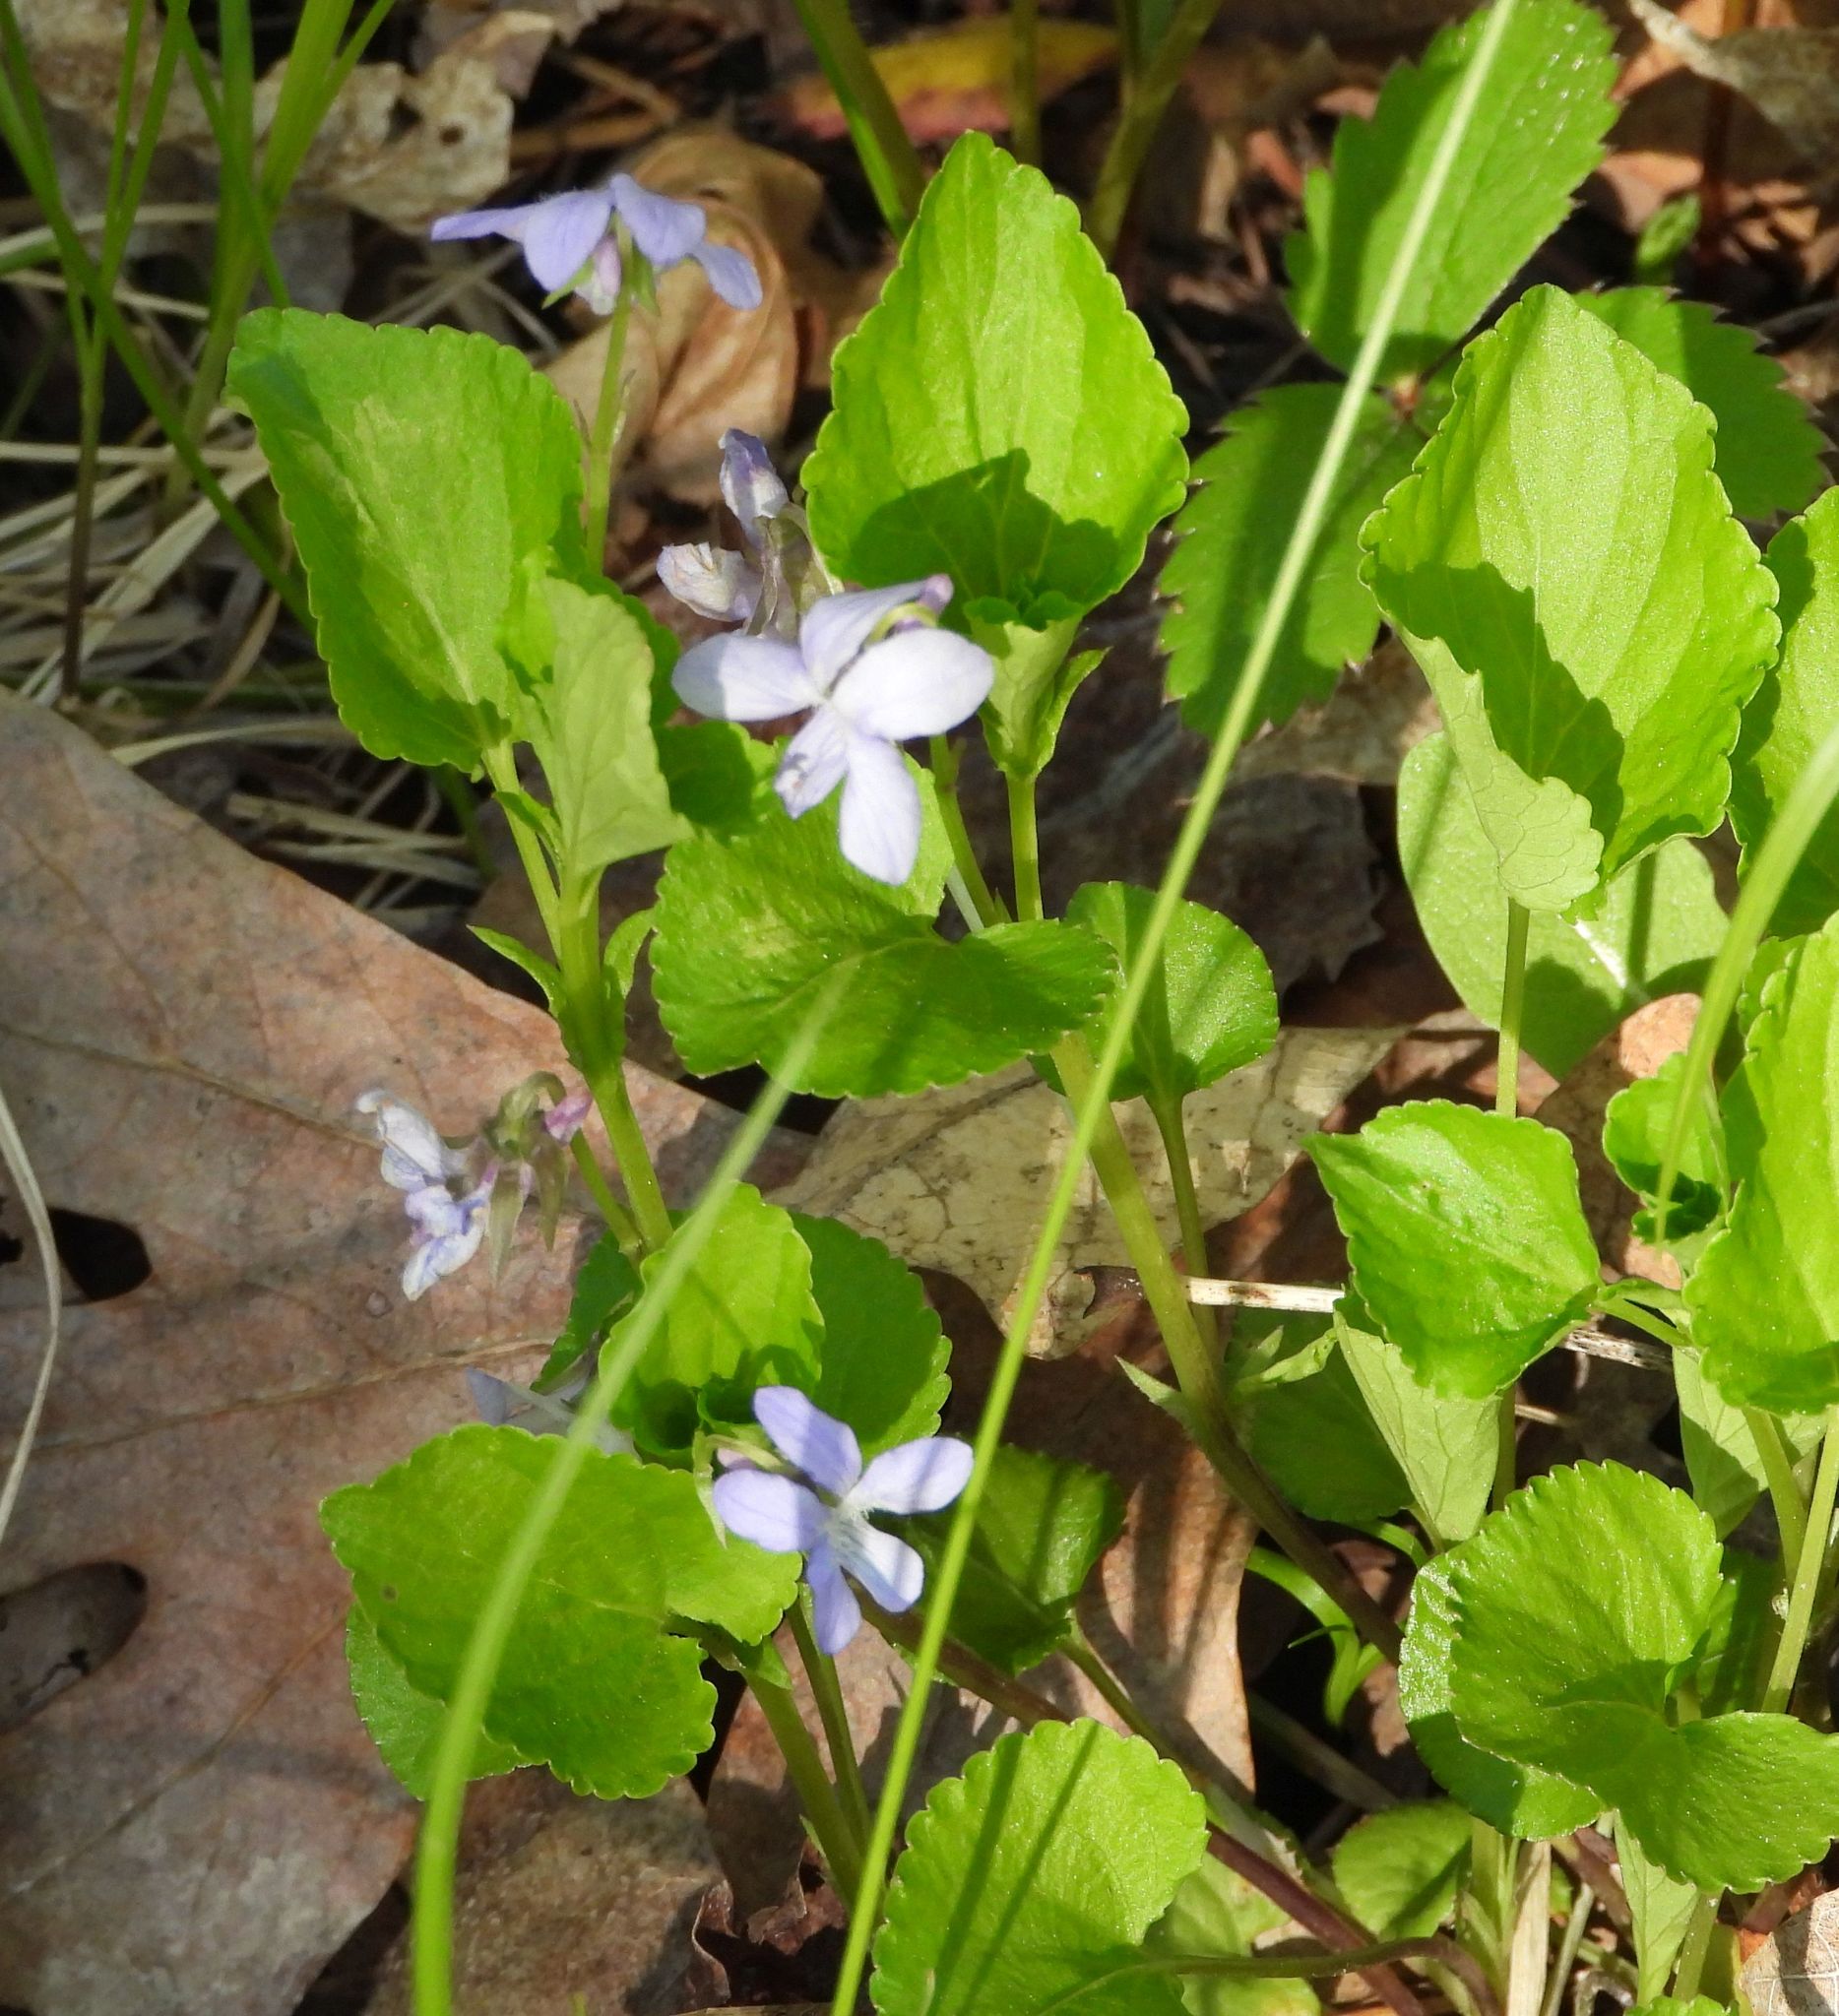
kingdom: Plantae
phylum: Tracheophyta
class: Magnoliopsida
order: Malpighiales
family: Violaceae
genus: Viola
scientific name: Viola labradorica
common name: Labrador violet
